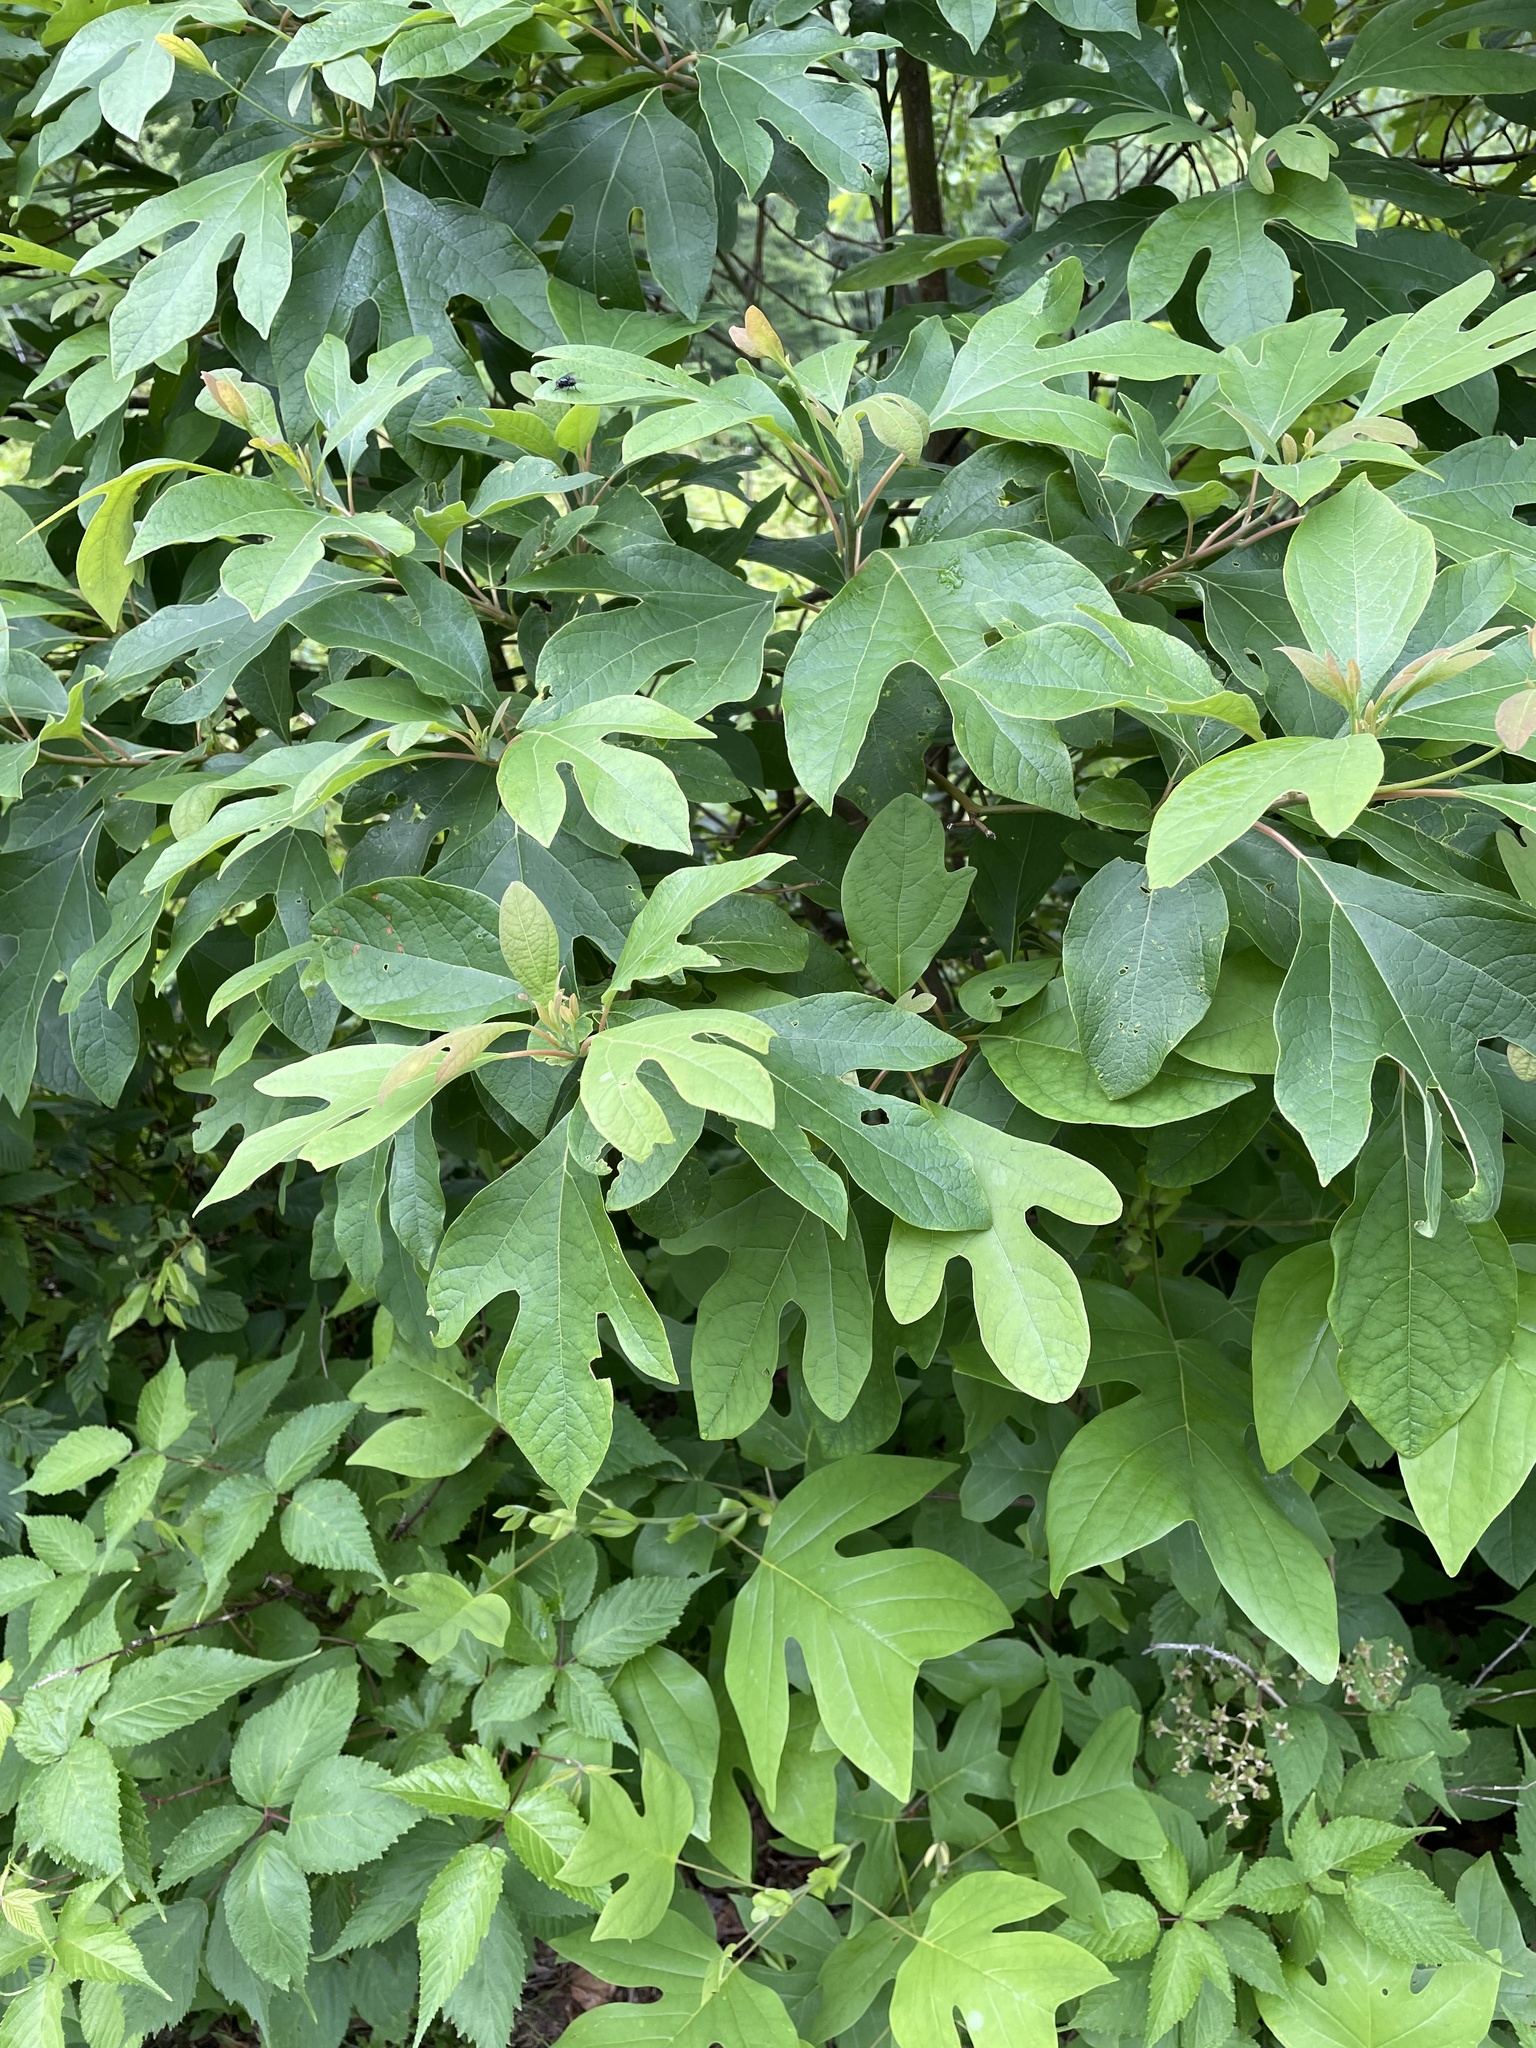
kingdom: Plantae
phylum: Tracheophyta
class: Magnoliopsida
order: Laurales
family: Lauraceae
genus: Sassafras
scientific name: Sassafras albidum
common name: Sassafras
